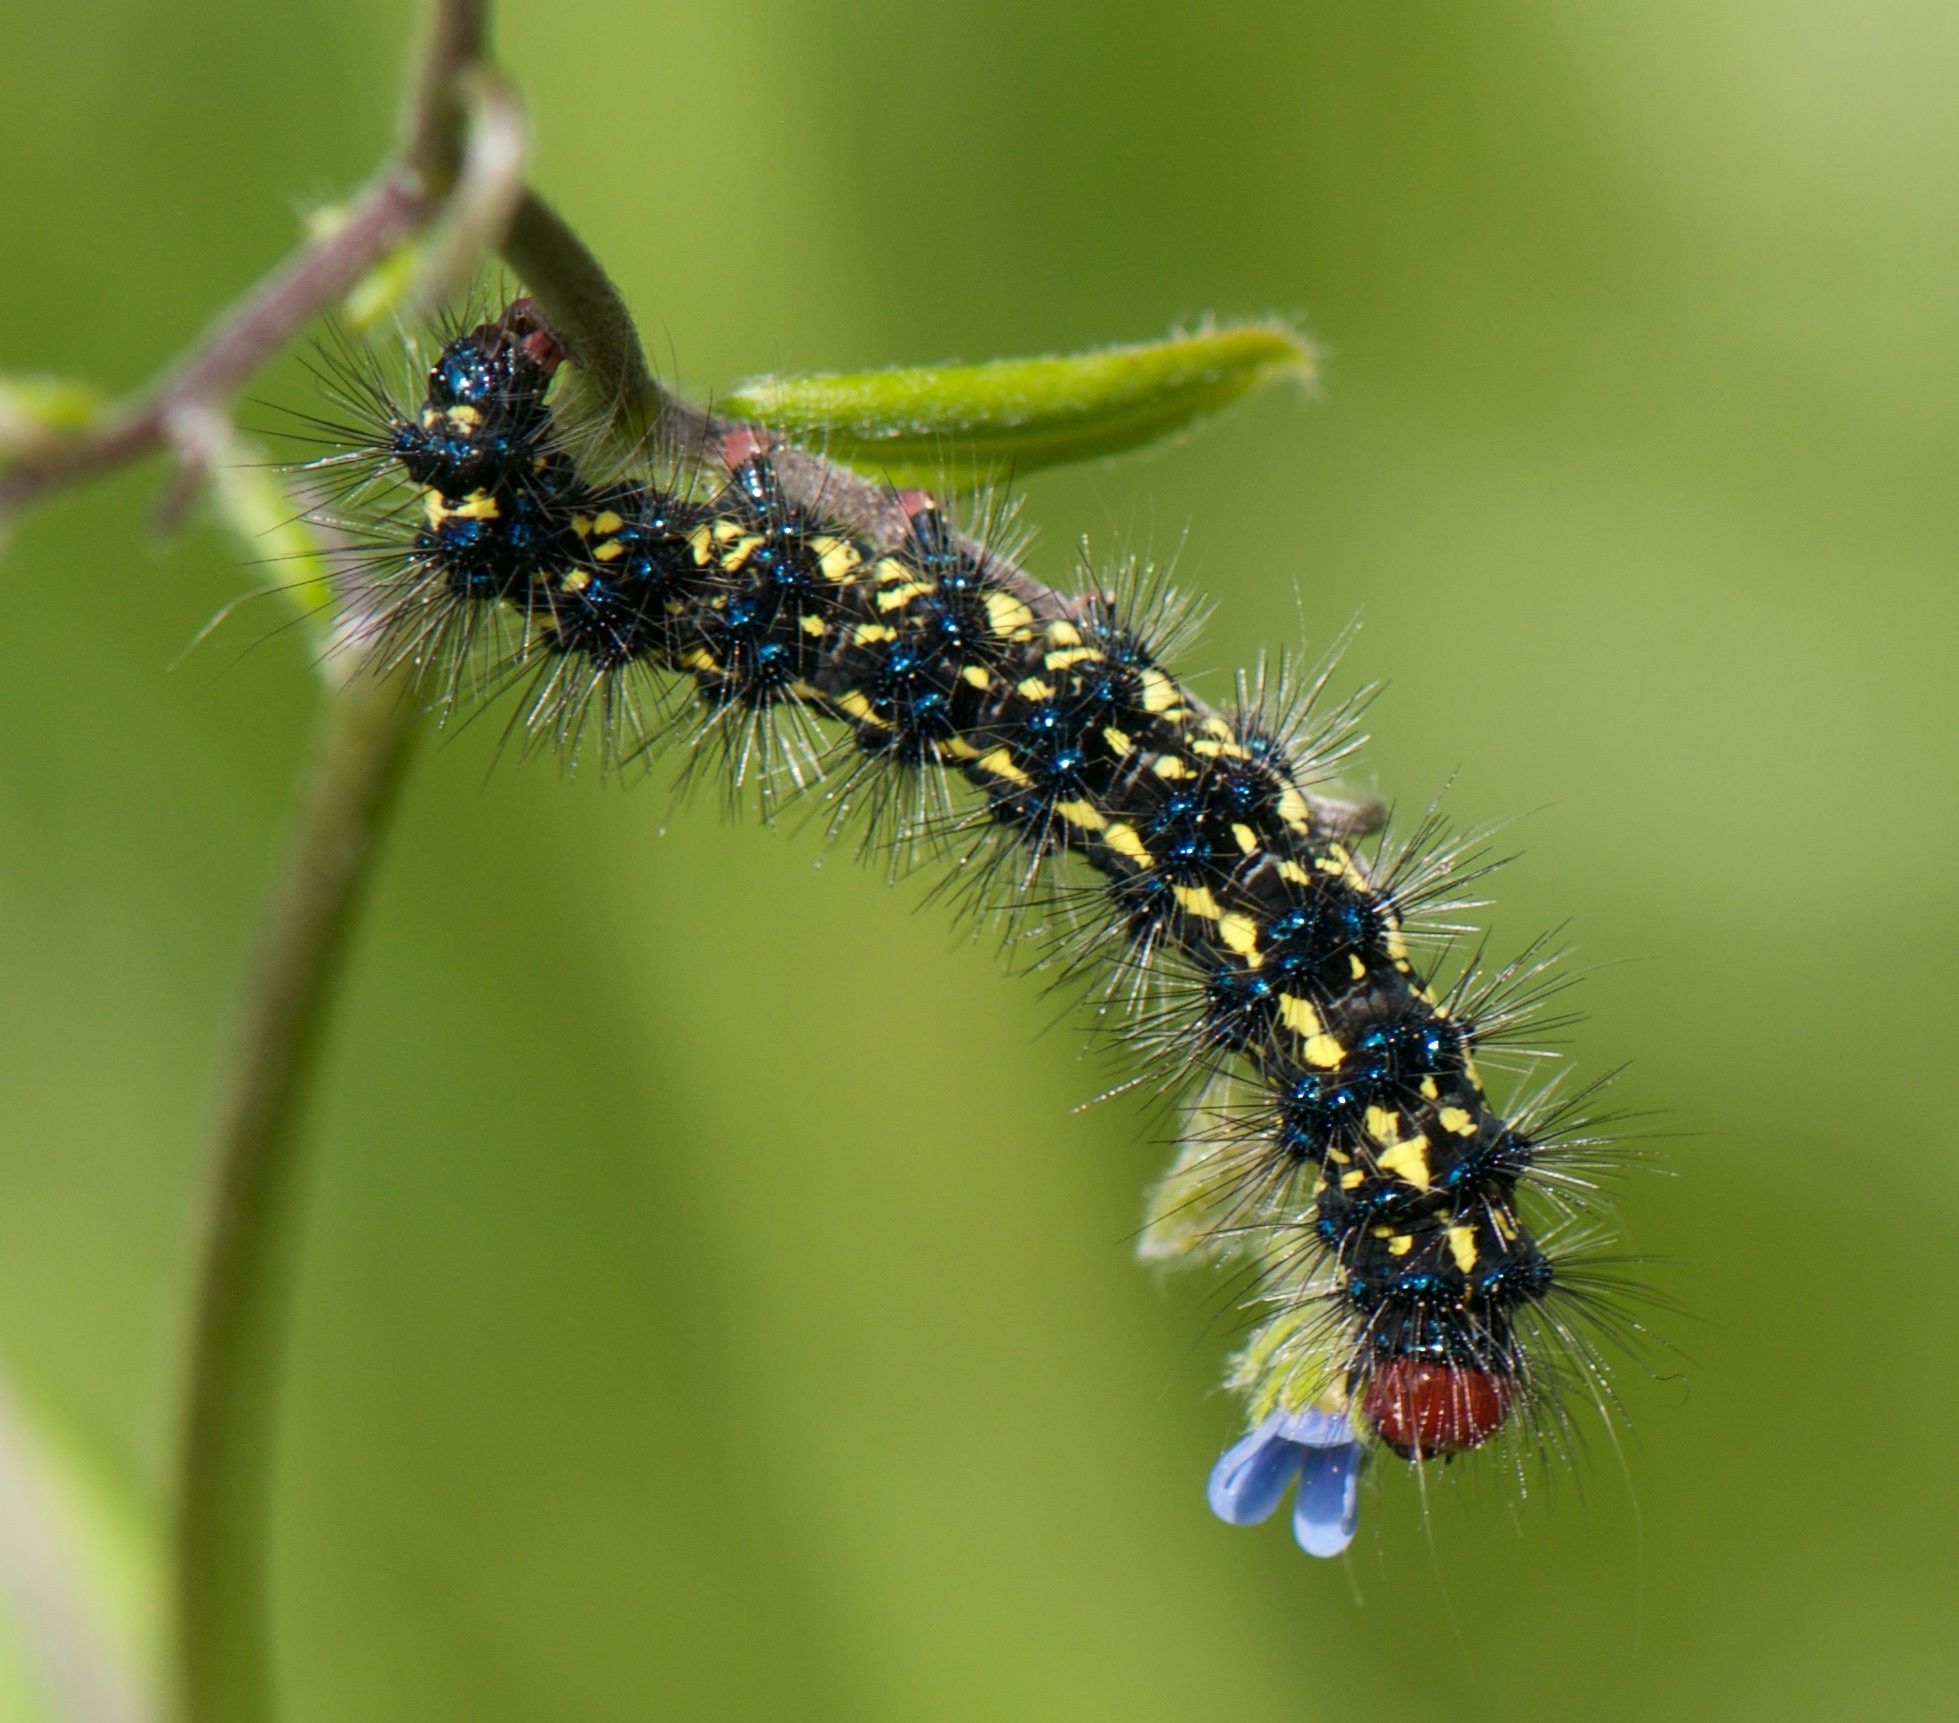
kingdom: Animalia
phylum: Arthropoda
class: Insecta
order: Lepidoptera
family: Erebidae
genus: Gnophaela
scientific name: Gnophaela vermiculata
